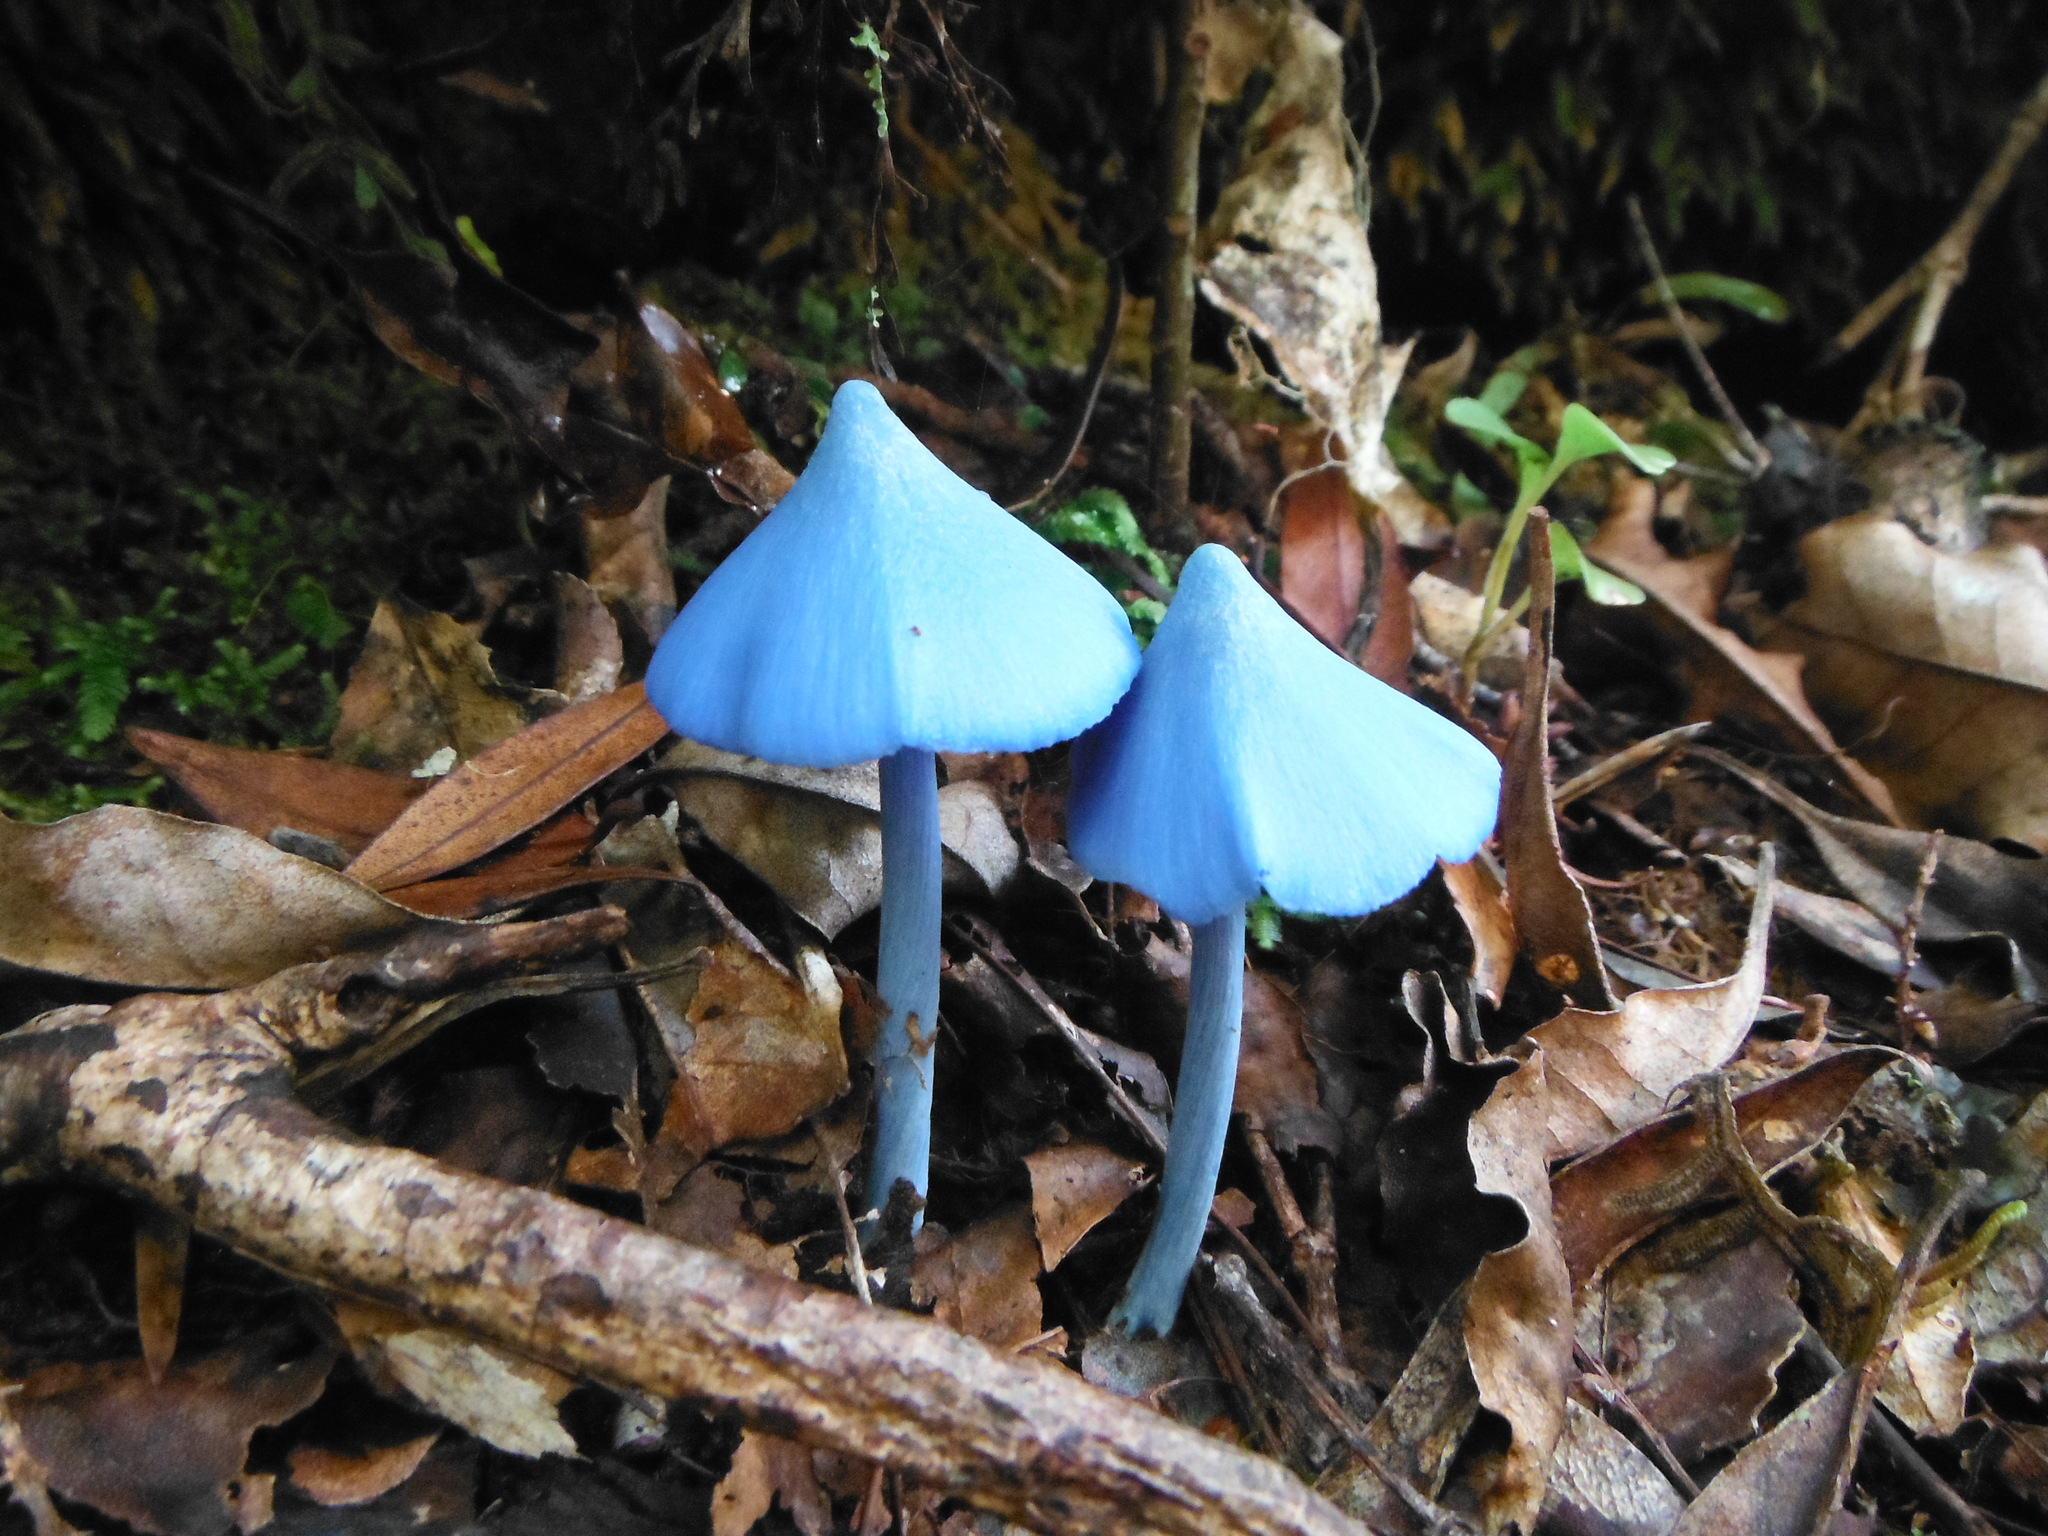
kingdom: Fungi
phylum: Basidiomycota
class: Agaricomycetes
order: Agaricales
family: Entolomataceae
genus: Entoloma
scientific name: Entoloma hochstetteri
